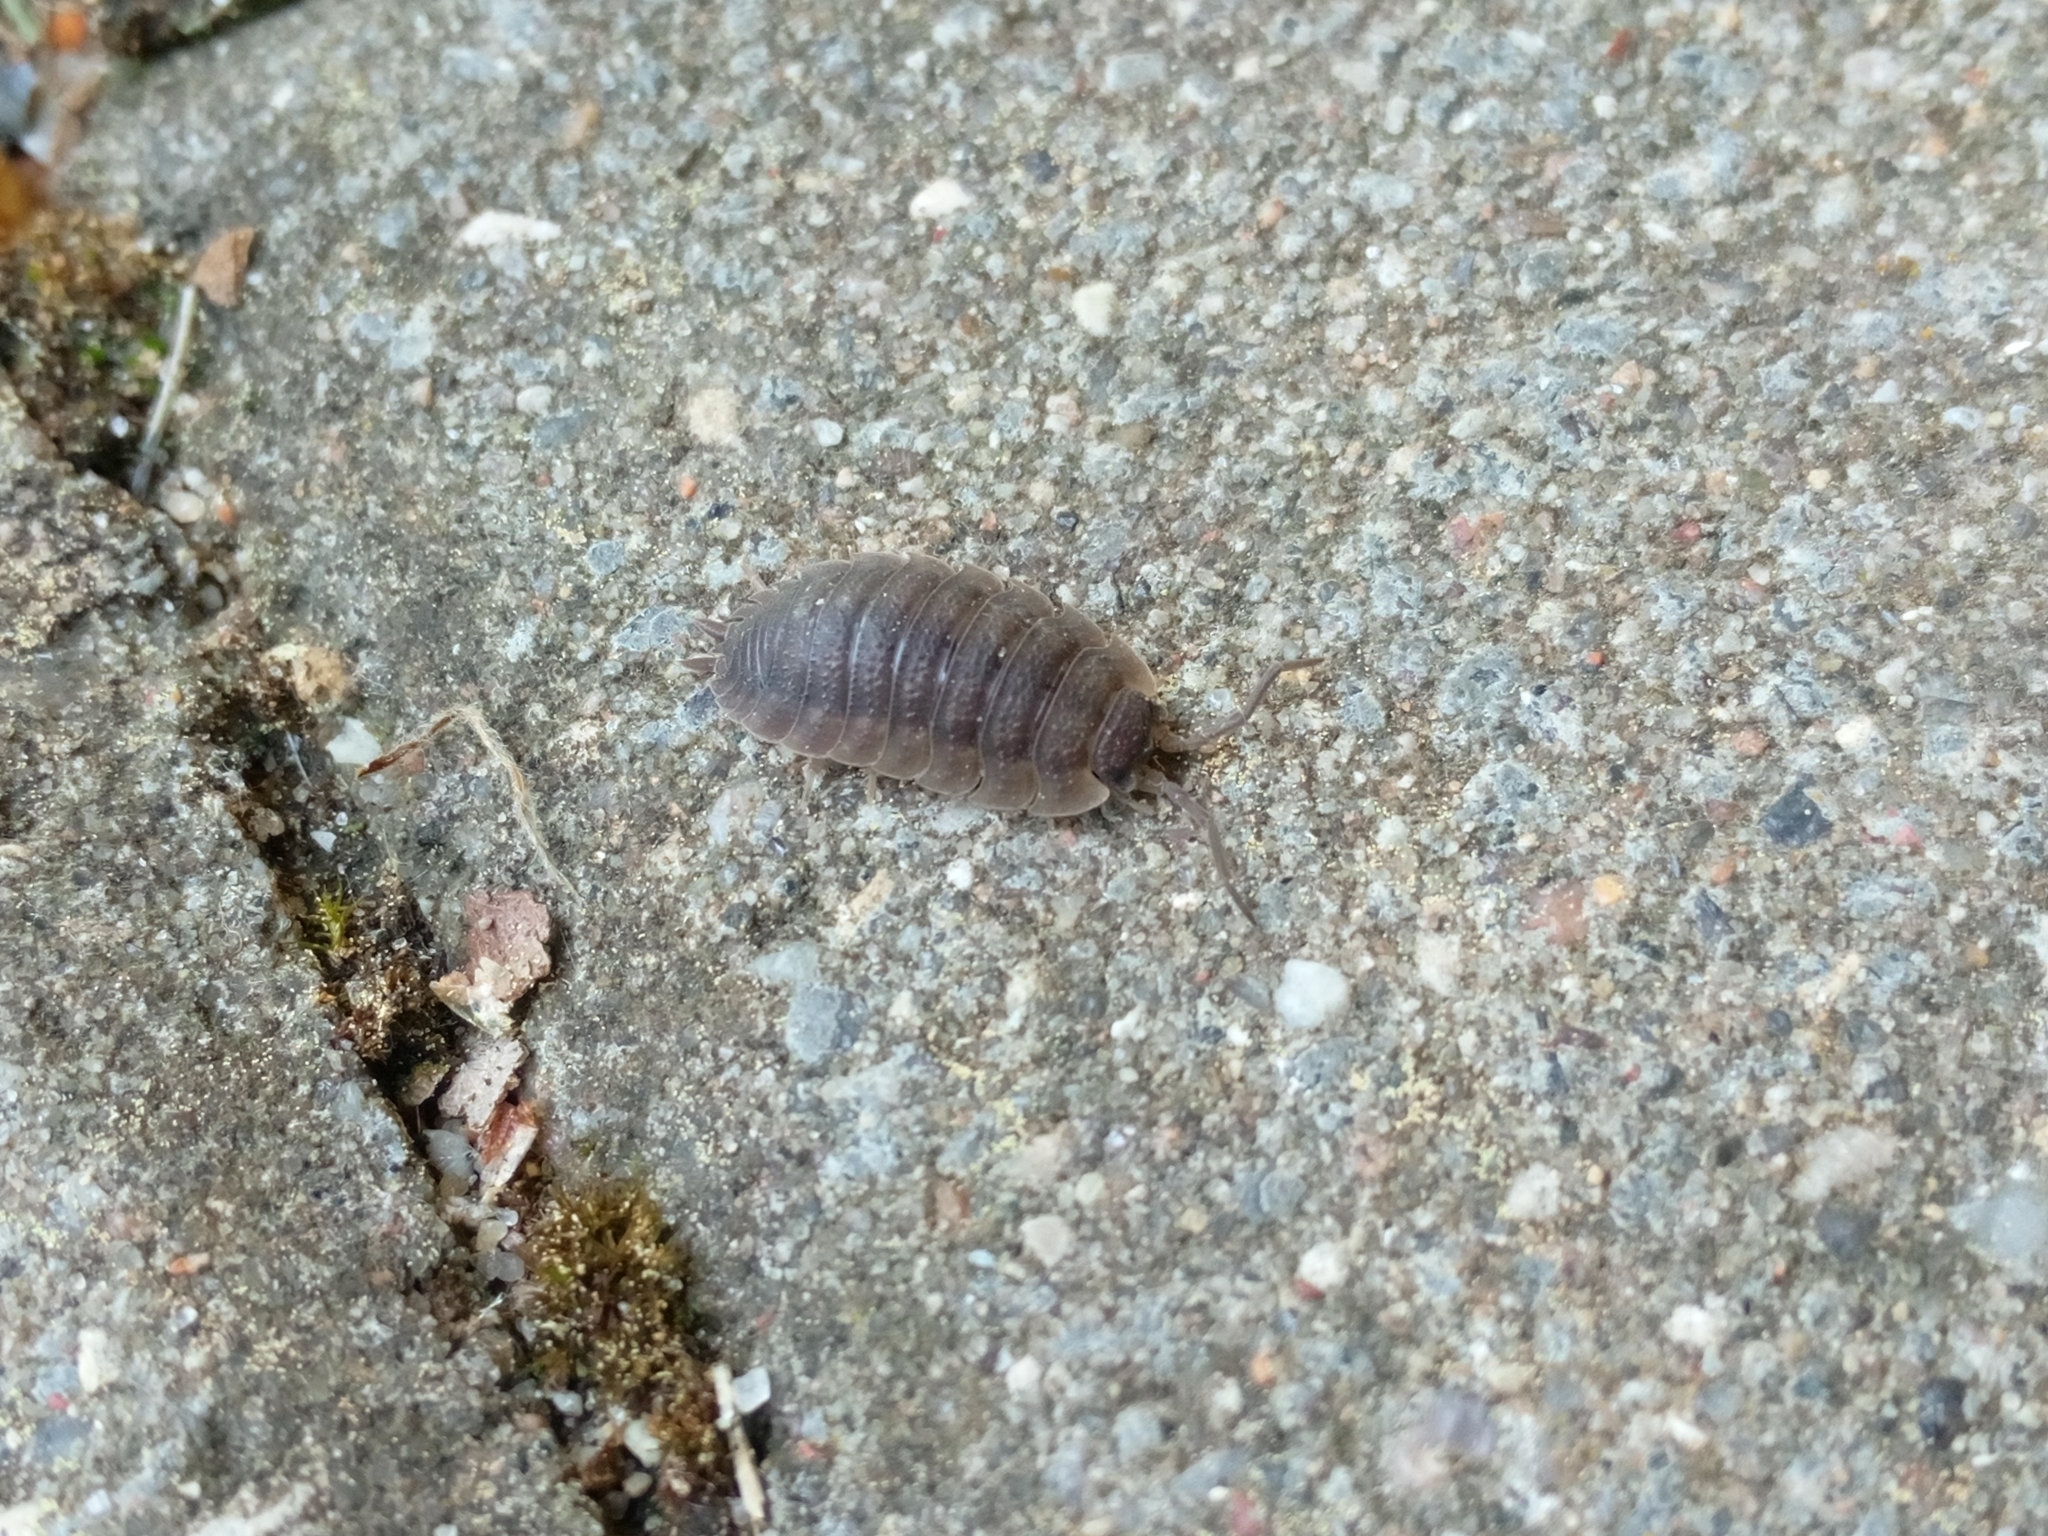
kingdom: Animalia
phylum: Arthropoda
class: Malacostraca
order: Isopoda
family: Porcellionidae
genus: Porcellio
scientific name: Porcellio scaber
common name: Common rough woodlouse
